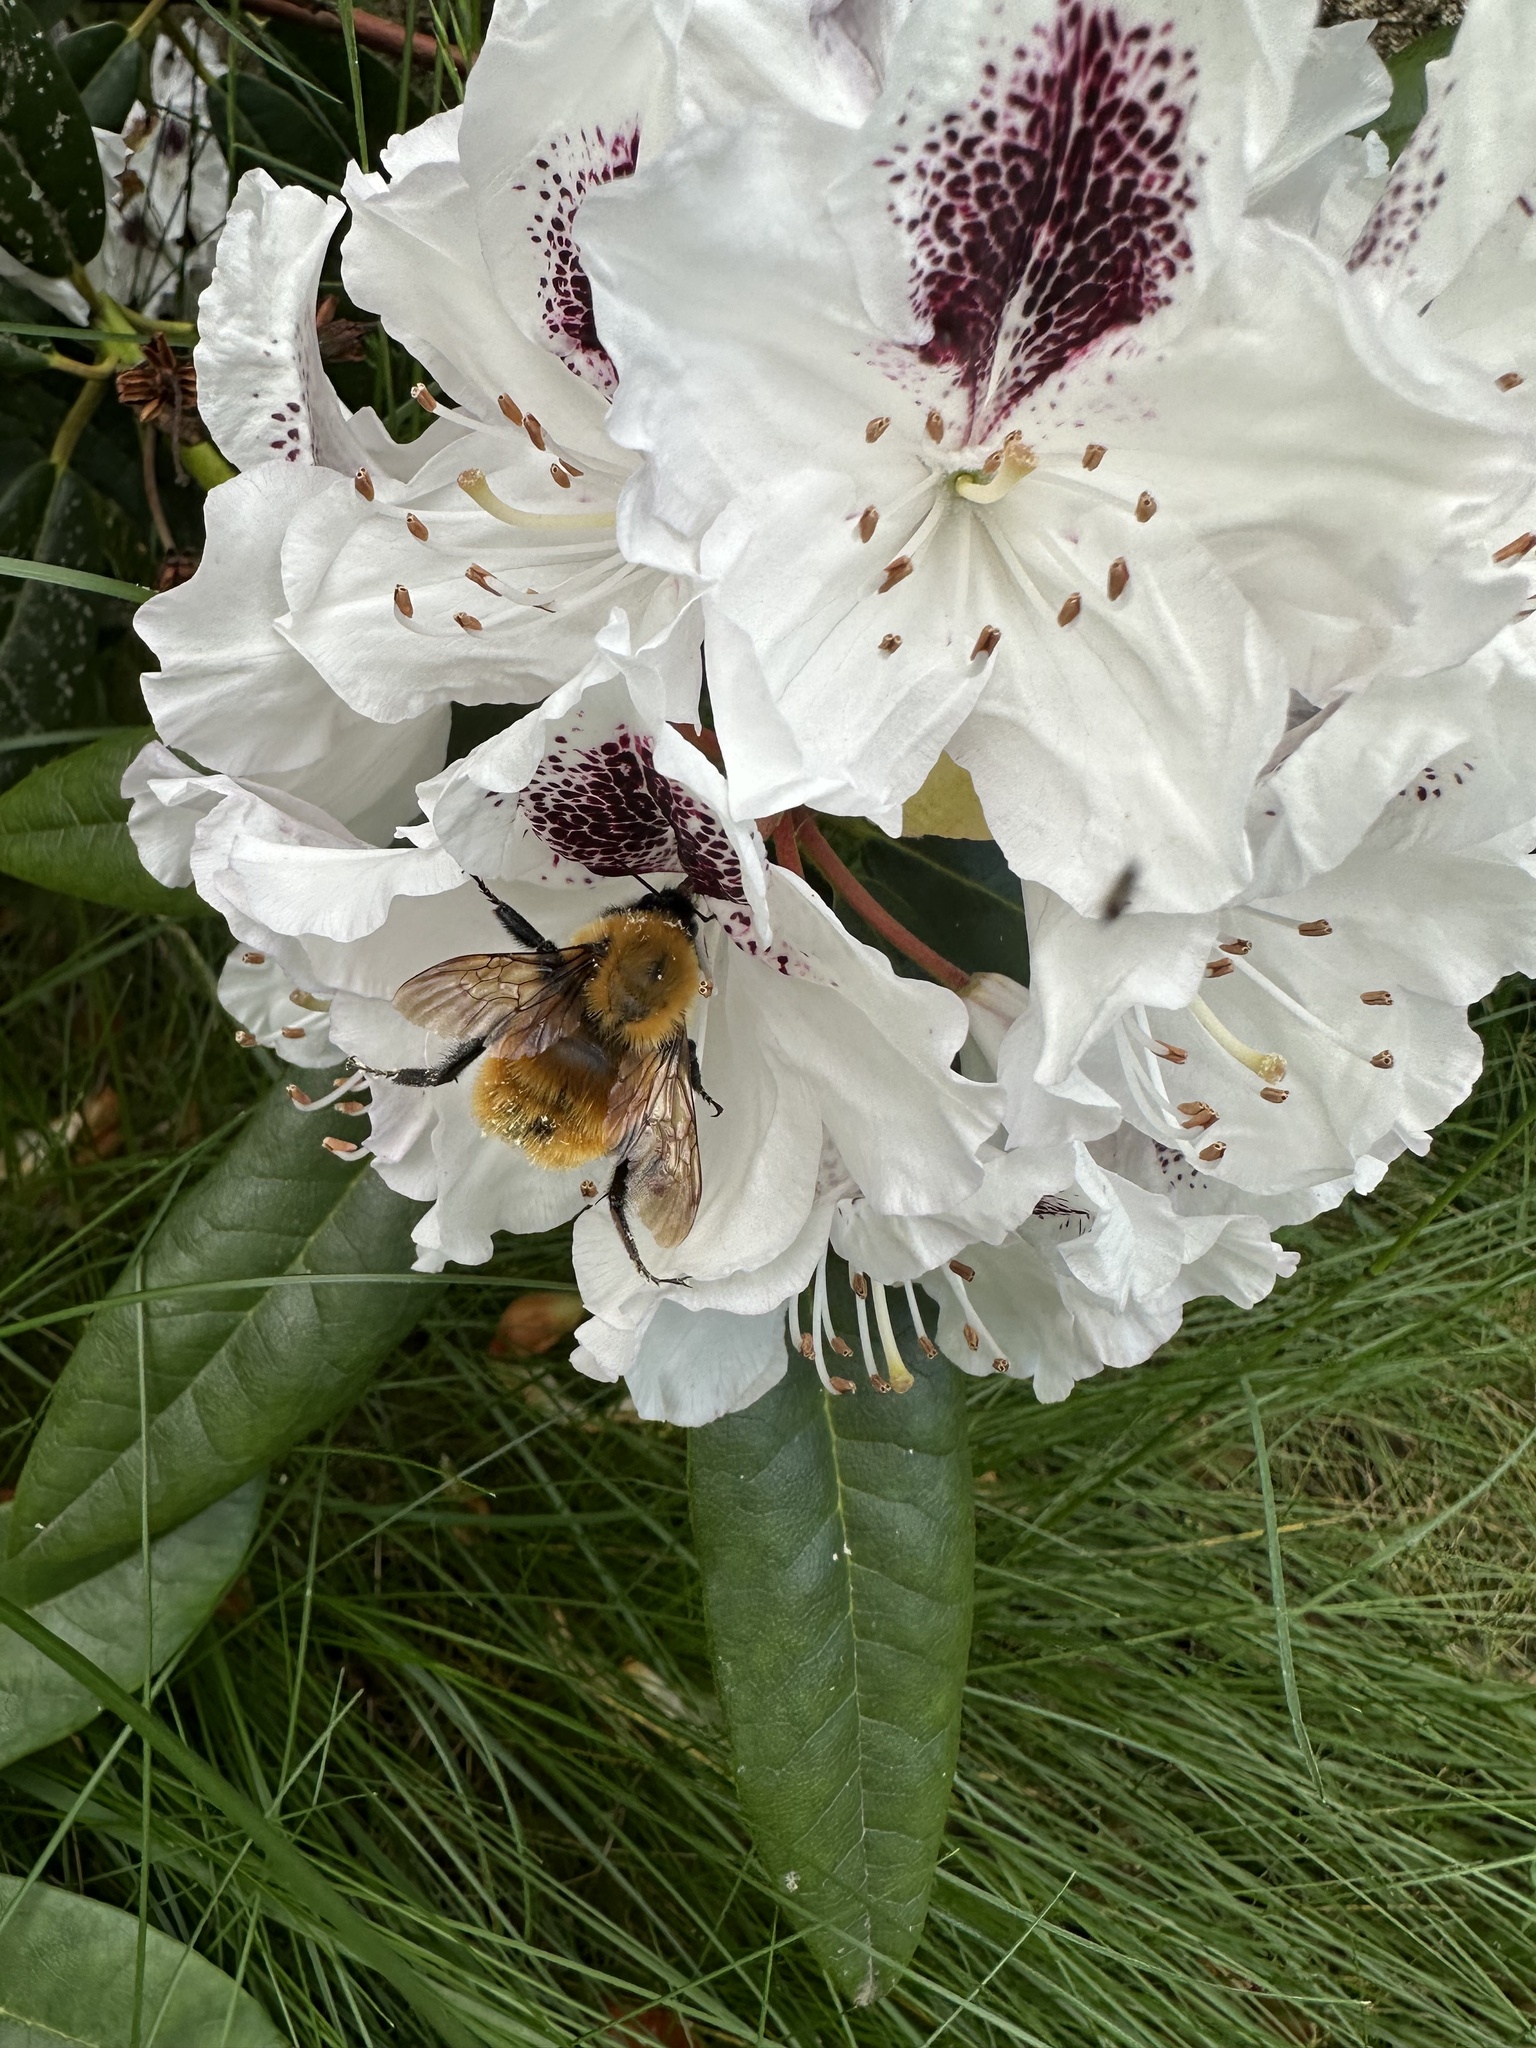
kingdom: Animalia
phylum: Arthropoda
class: Insecta
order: Hymenoptera
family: Apidae
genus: Bombus
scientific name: Bombus dahlbomii
